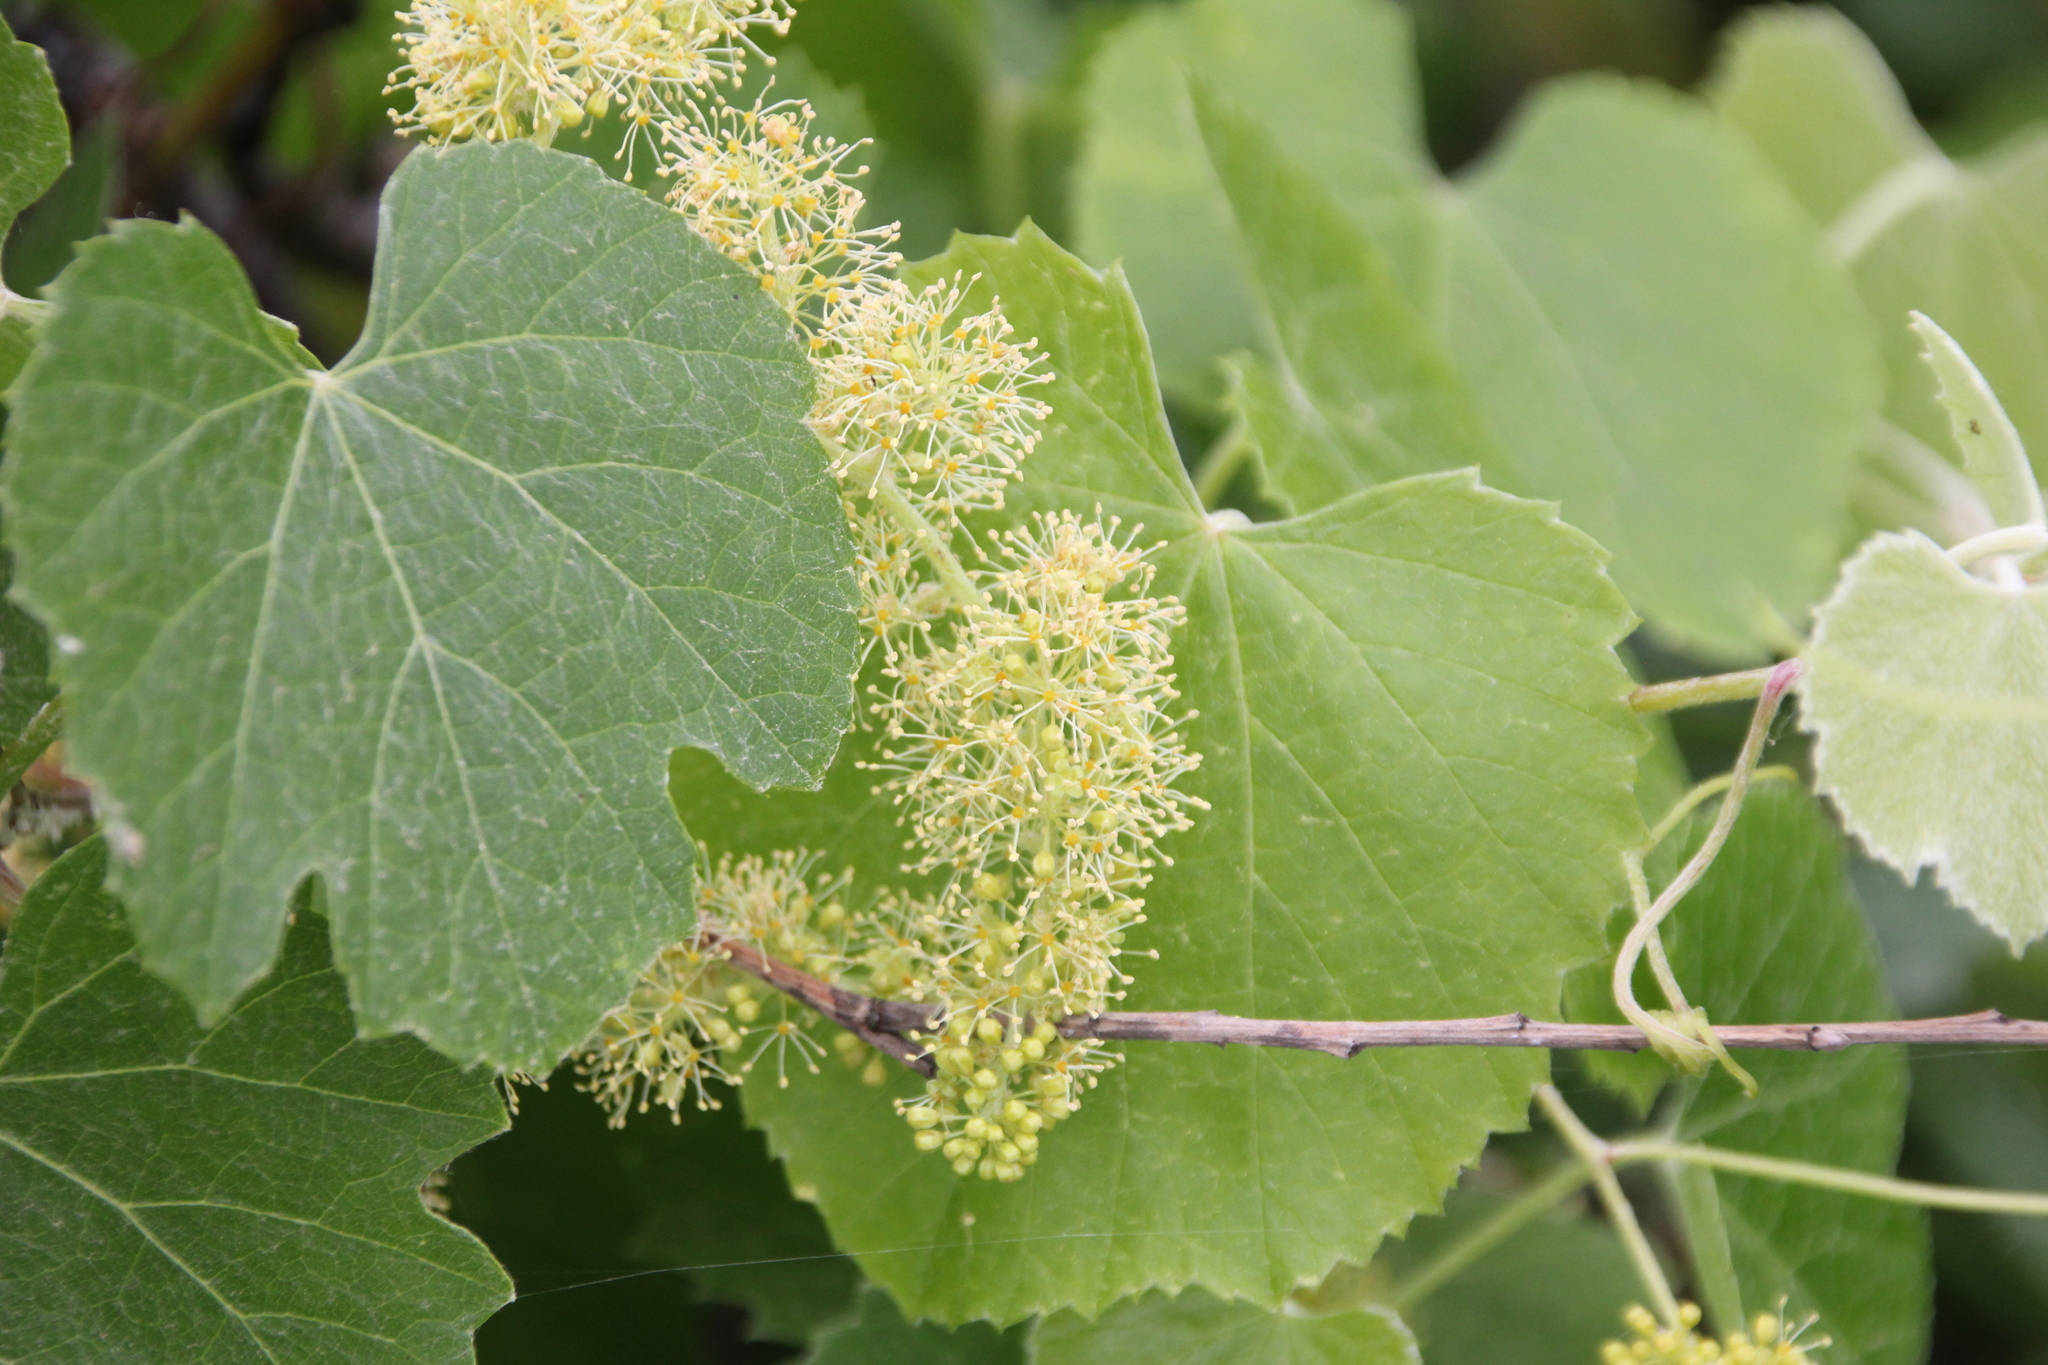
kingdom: Plantae
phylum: Tracheophyta
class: Magnoliopsida
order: Vitales
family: Vitaceae
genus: Vitis
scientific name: Vitis girdiana
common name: Desert wild grape
